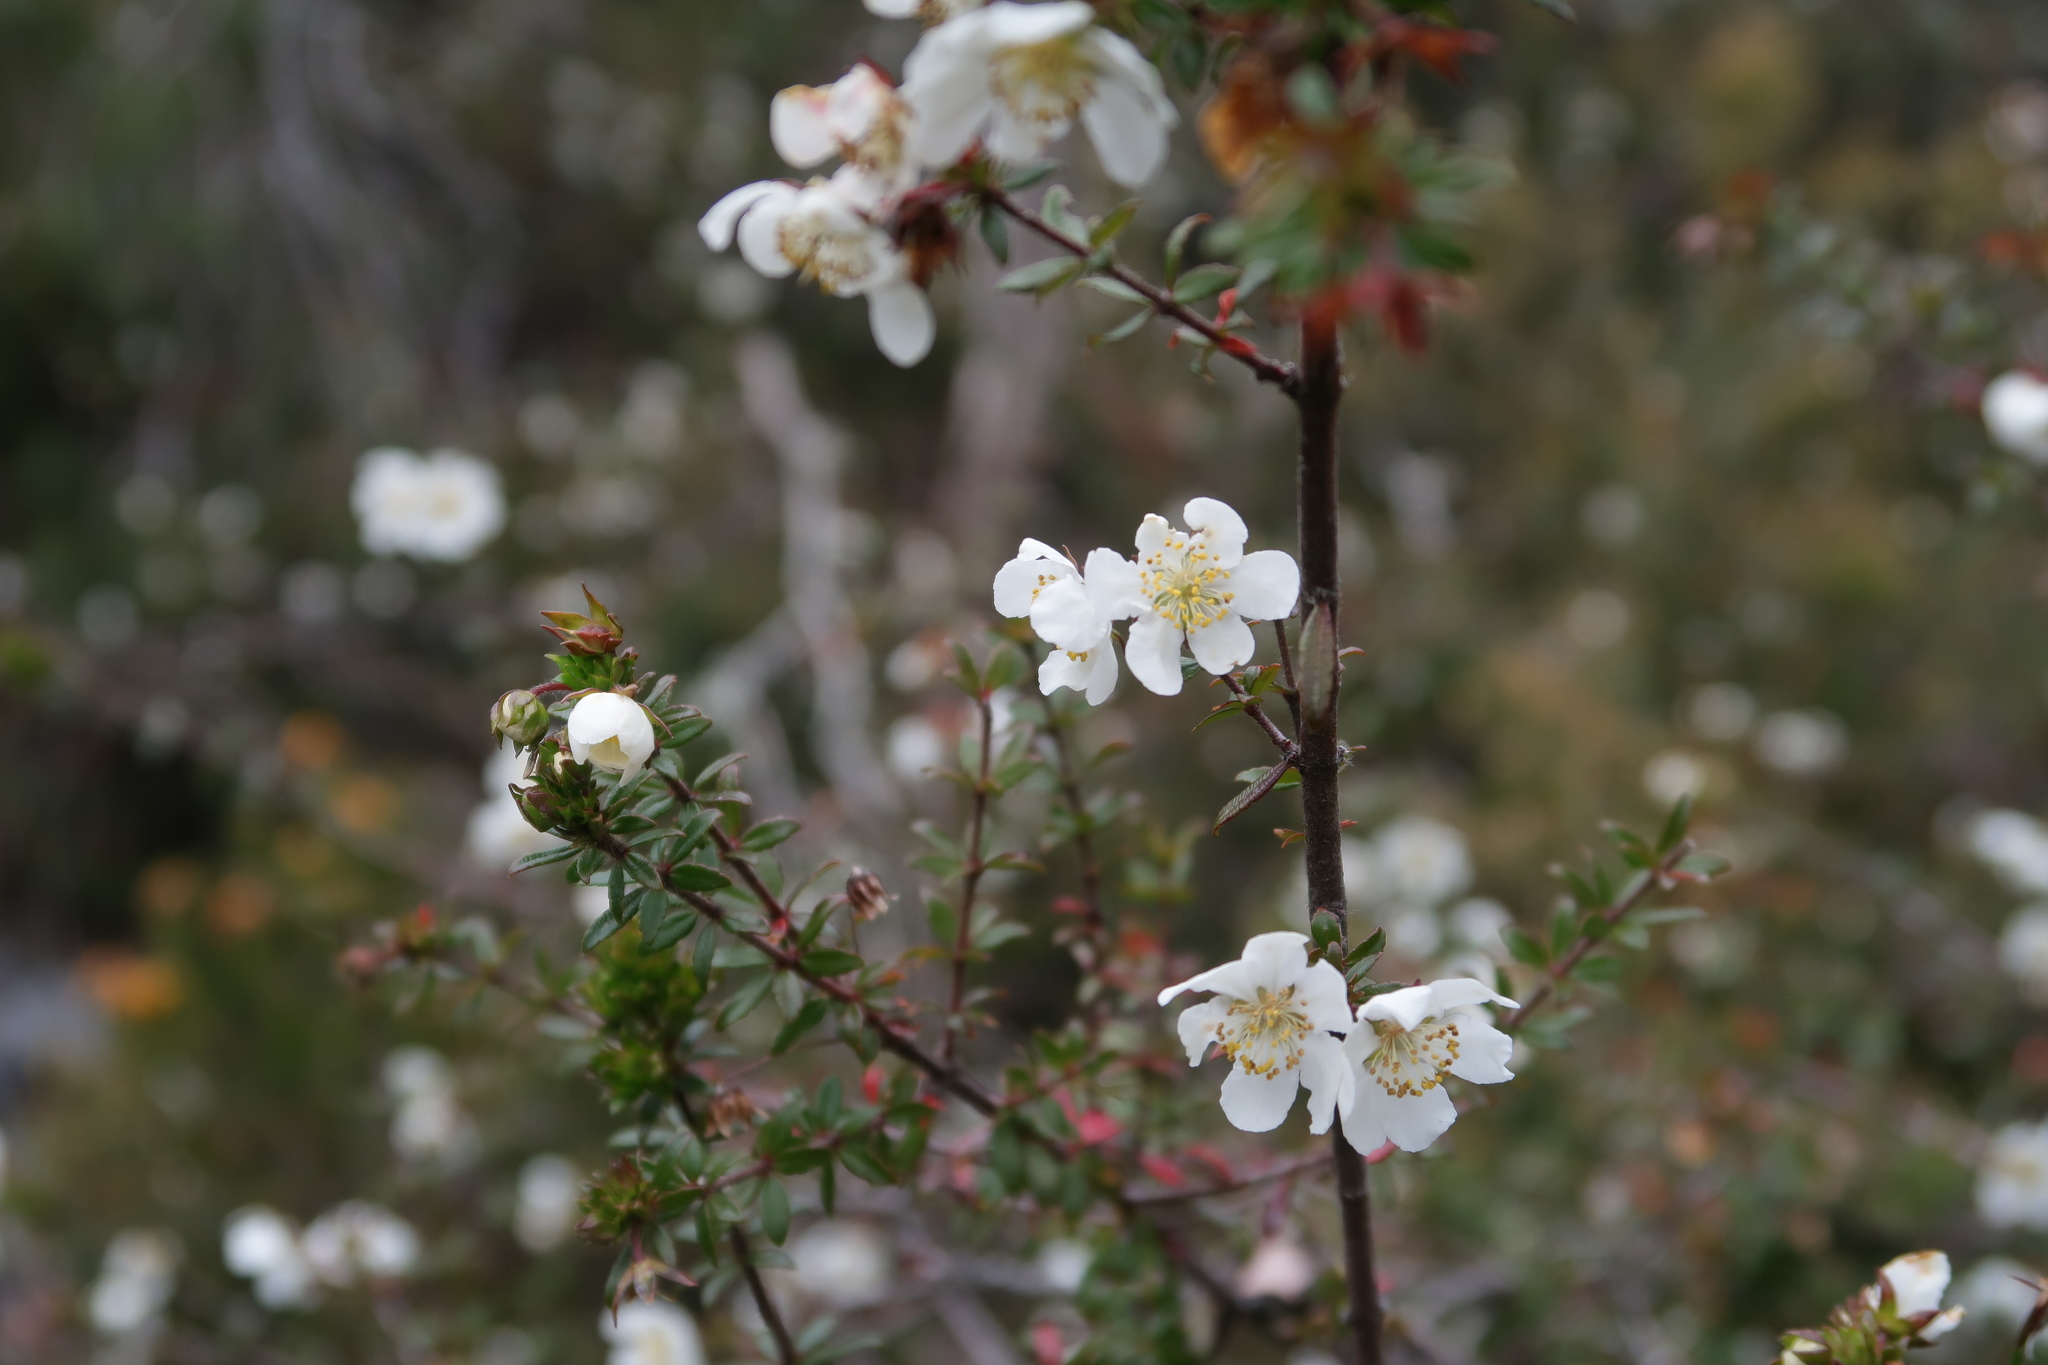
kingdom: Plantae
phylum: Tracheophyta
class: Magnoliopsida
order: Oxalidales
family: Cunoniaceae
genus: Bauera
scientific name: Bauera rubioides
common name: River-rose
